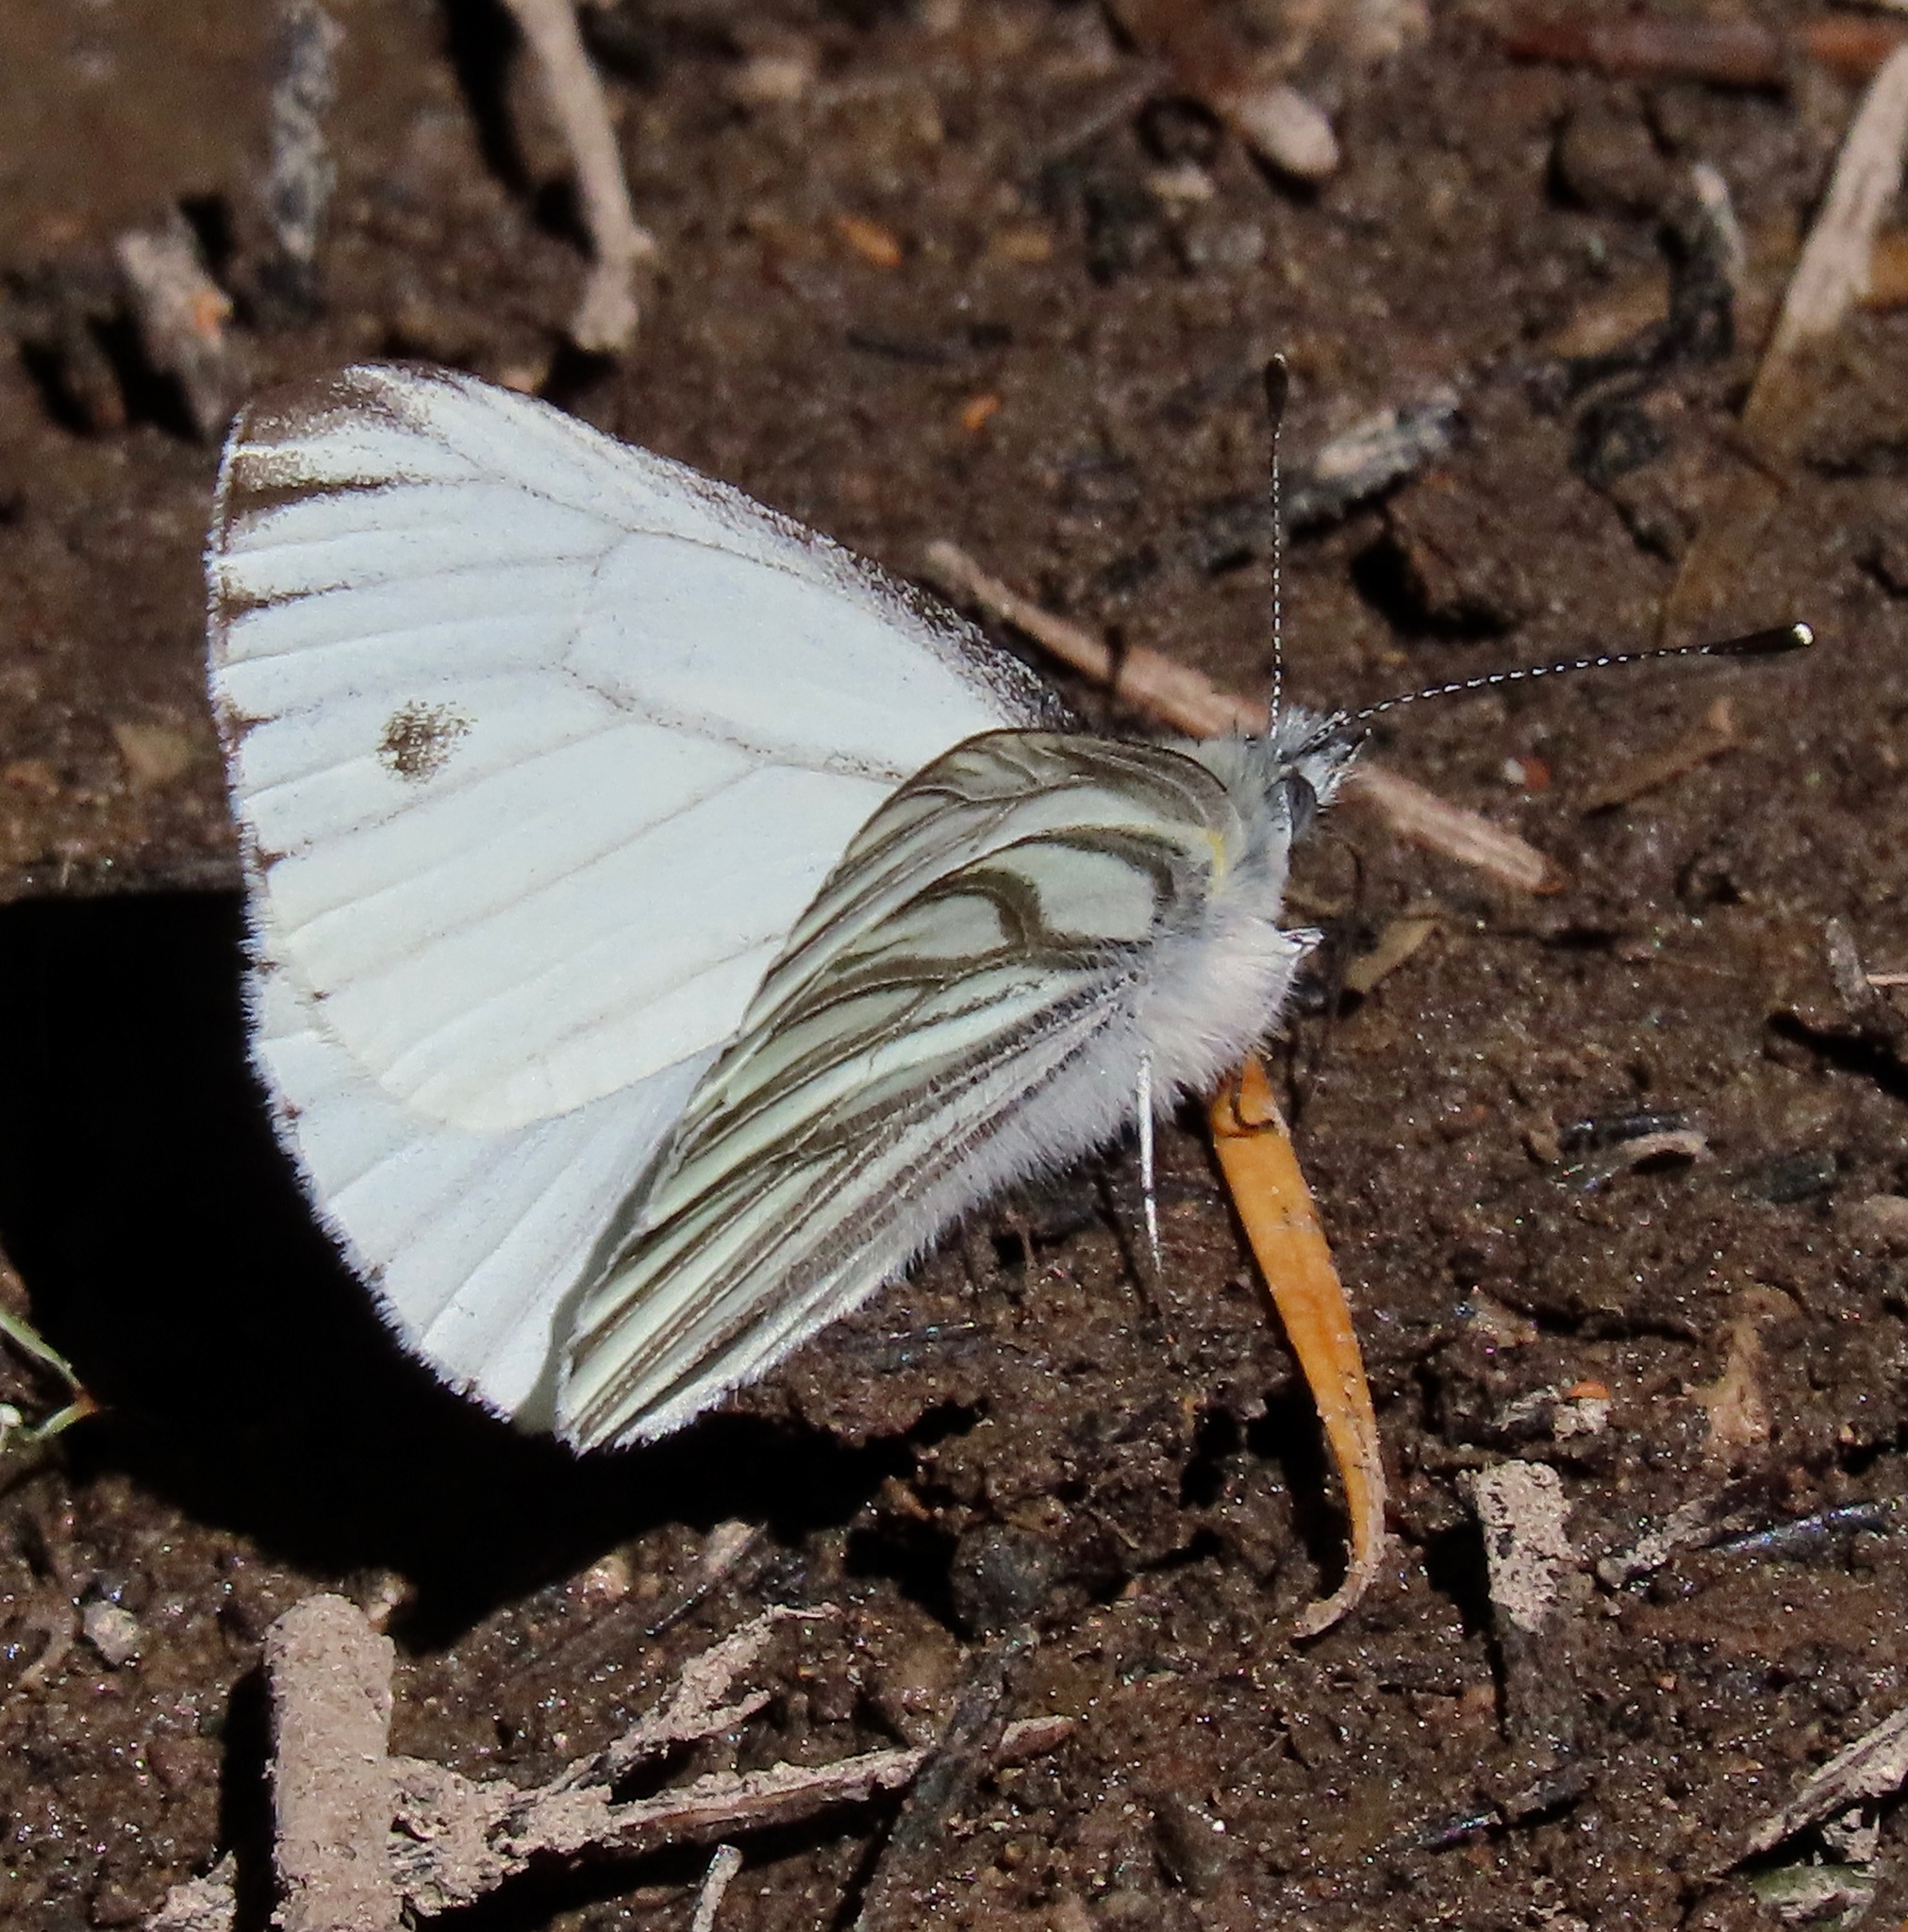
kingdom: Animalia
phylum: Arthropoda
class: Insecta
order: Lepidoptera
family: Pieridae
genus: Pieris
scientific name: Pieris marginalis
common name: Margined white
